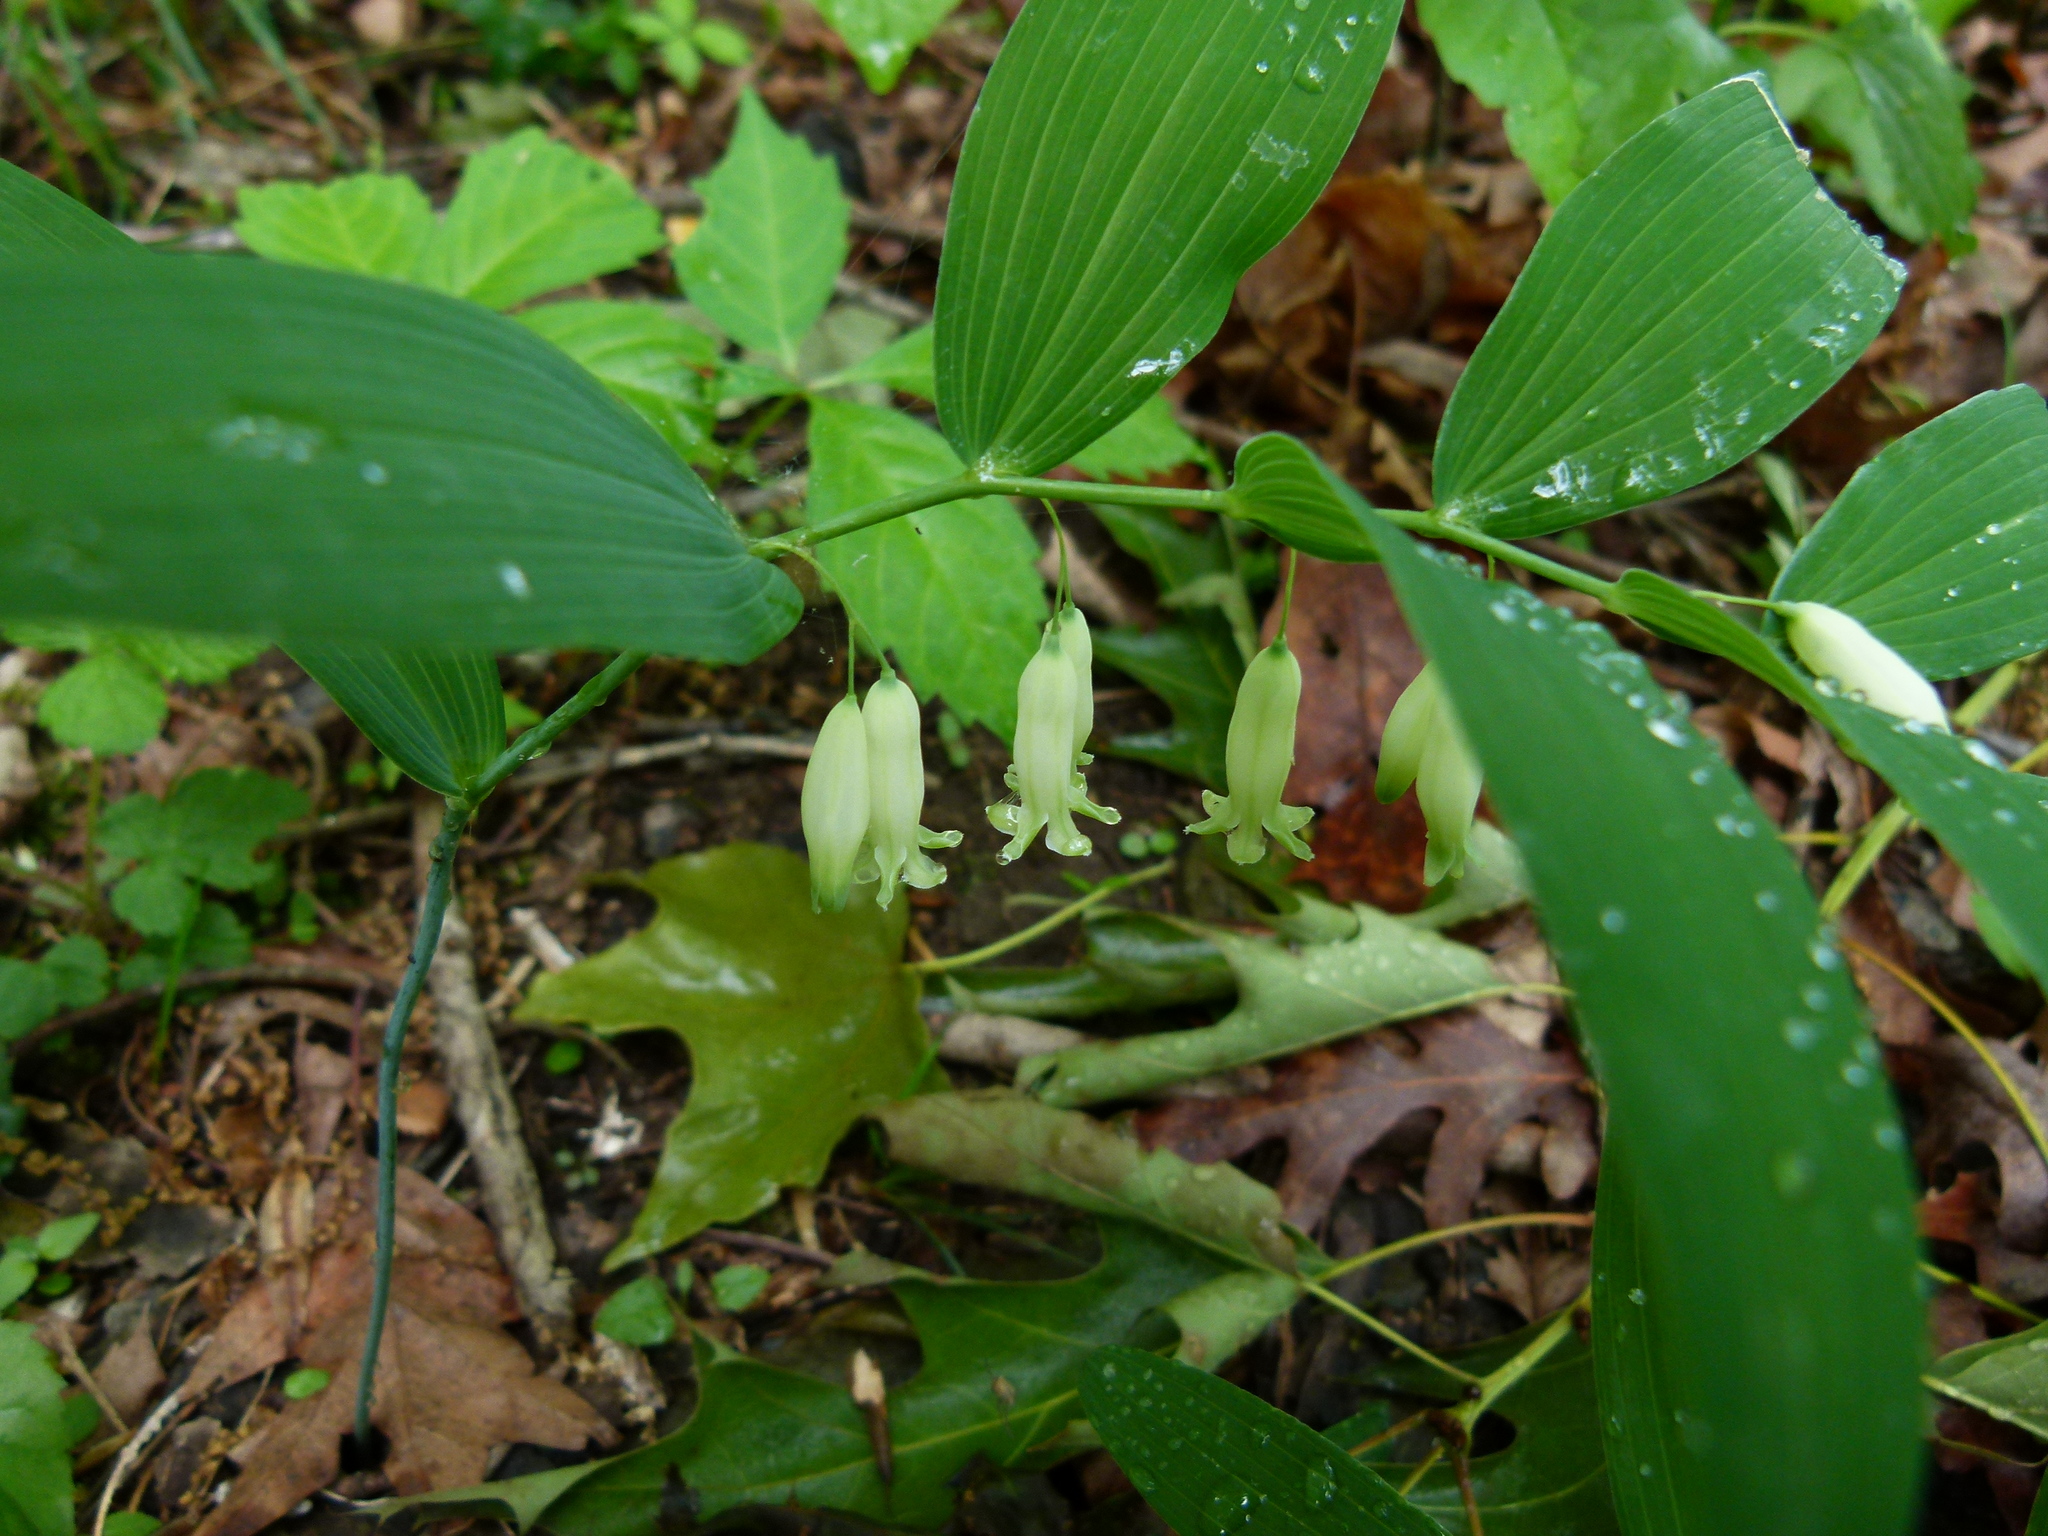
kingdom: Plantae
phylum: Tracheophyta
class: Liliopsida
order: Asparagales
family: Asparagaceae
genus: Polygonatum
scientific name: Polygonatum biflorum
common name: American solomon's-seal
